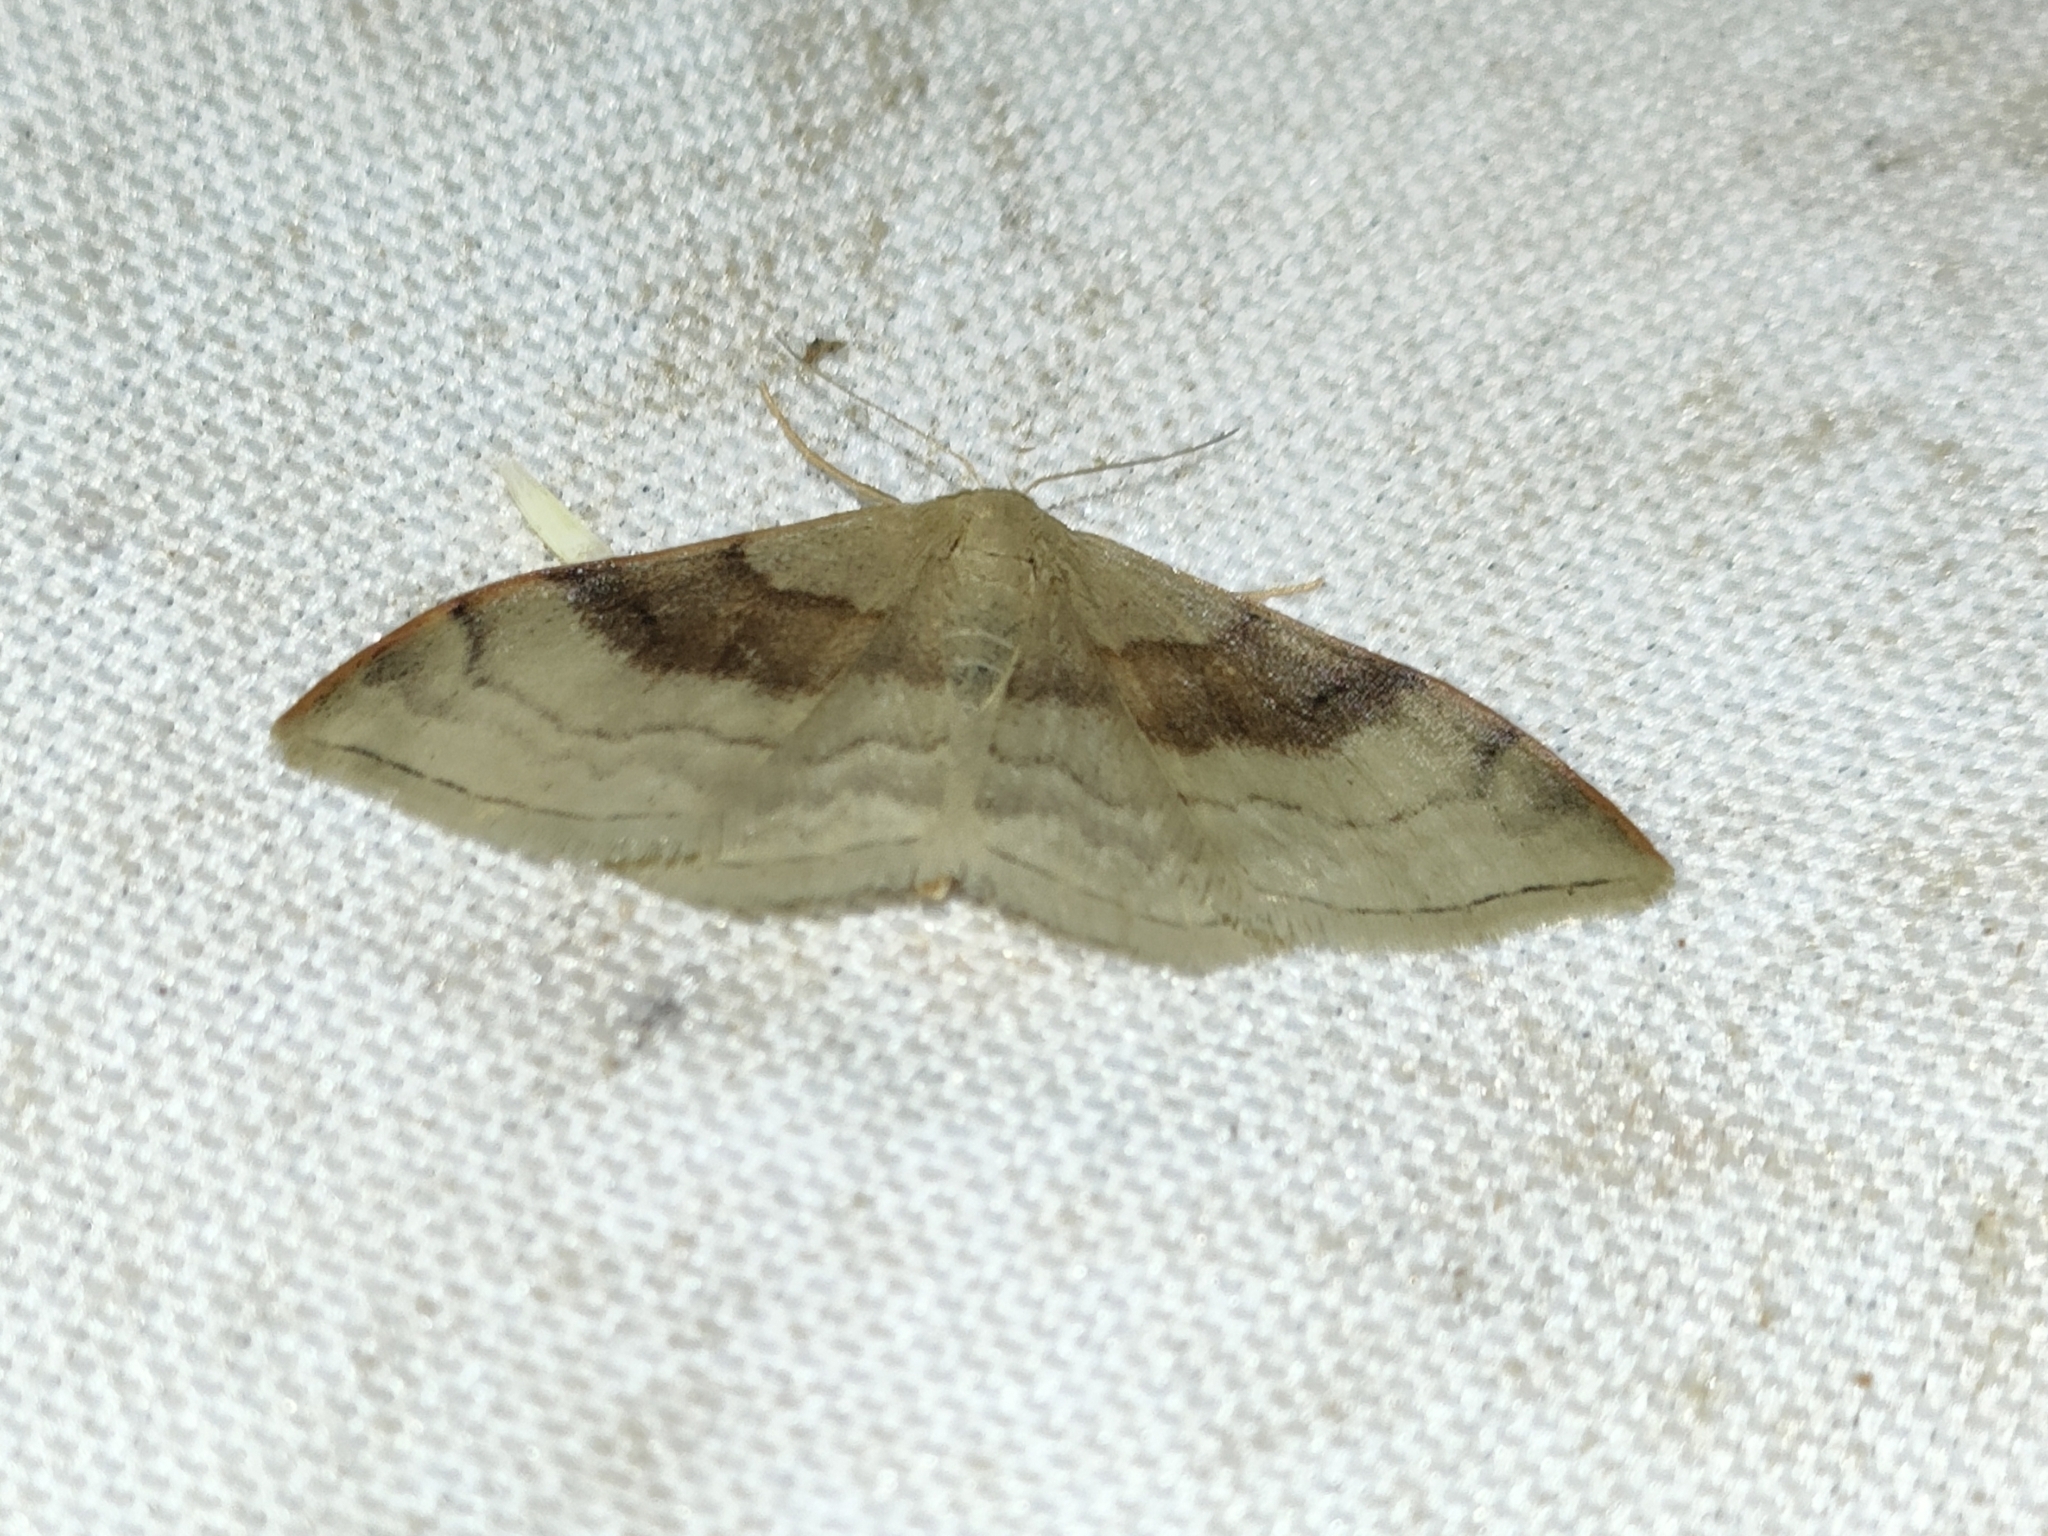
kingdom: Animalia
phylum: Arthropoda
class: Insecta
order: Lepidoptera
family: Geometridae
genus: Idaea
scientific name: Idaea degeneraria
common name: Portland ribbon wave
